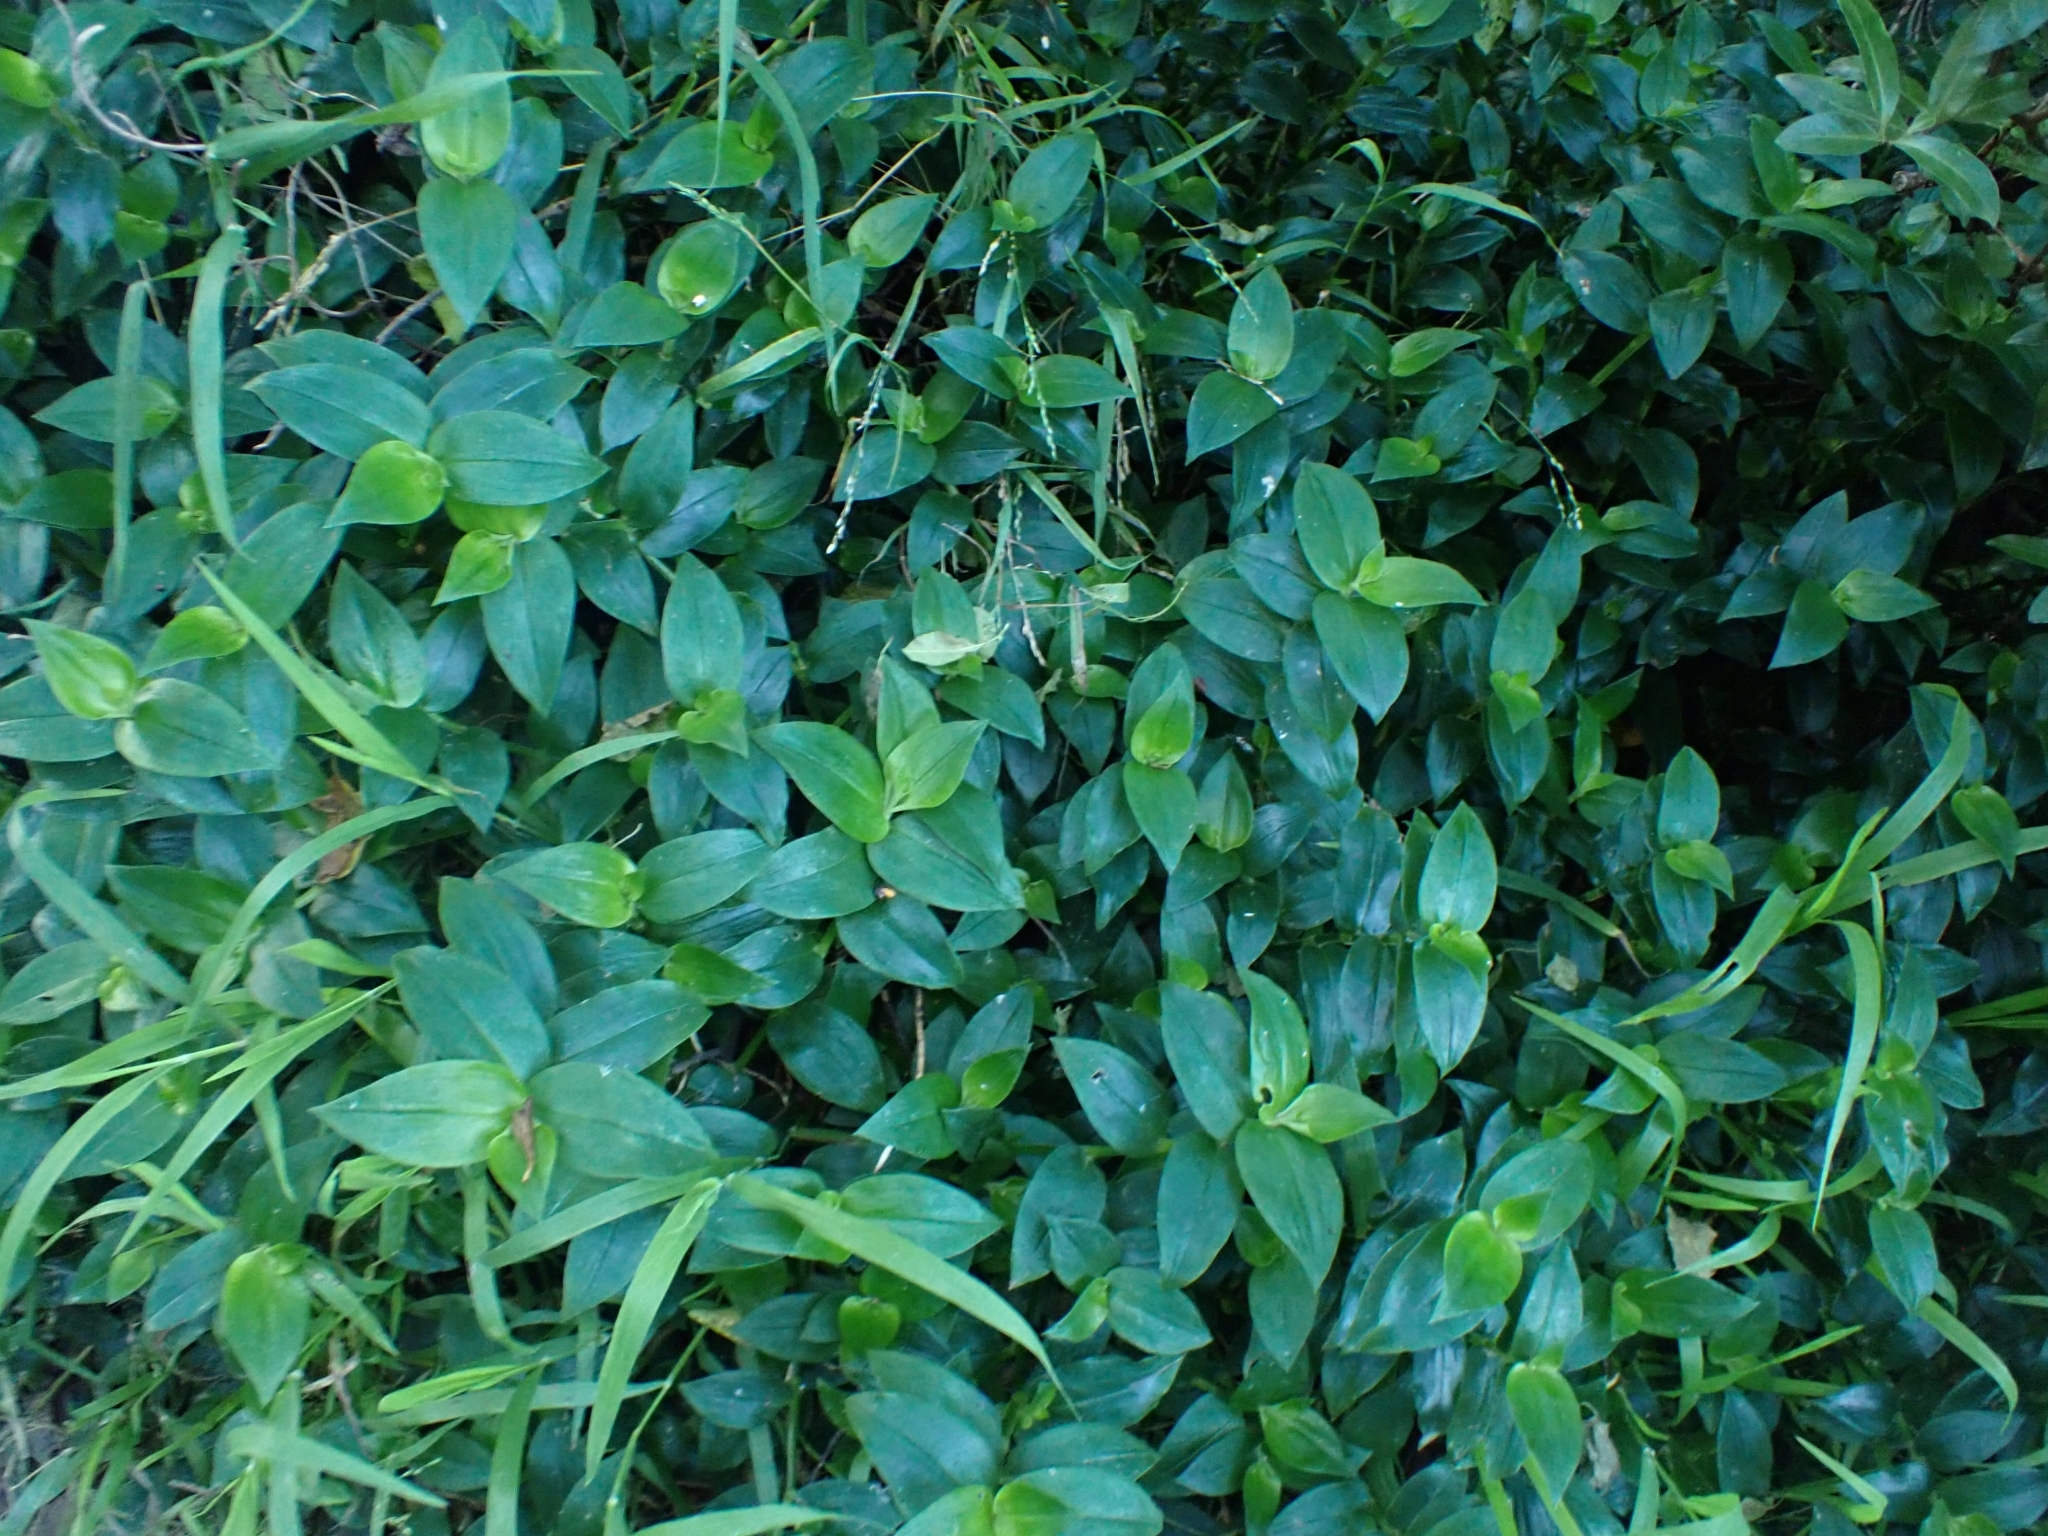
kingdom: Plantae
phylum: Tracheophyta
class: Liliopsida
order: Commelinales
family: Commelinaceae
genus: Tradescantia
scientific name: Tradescantia fluminensis
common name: Wandering-jew
